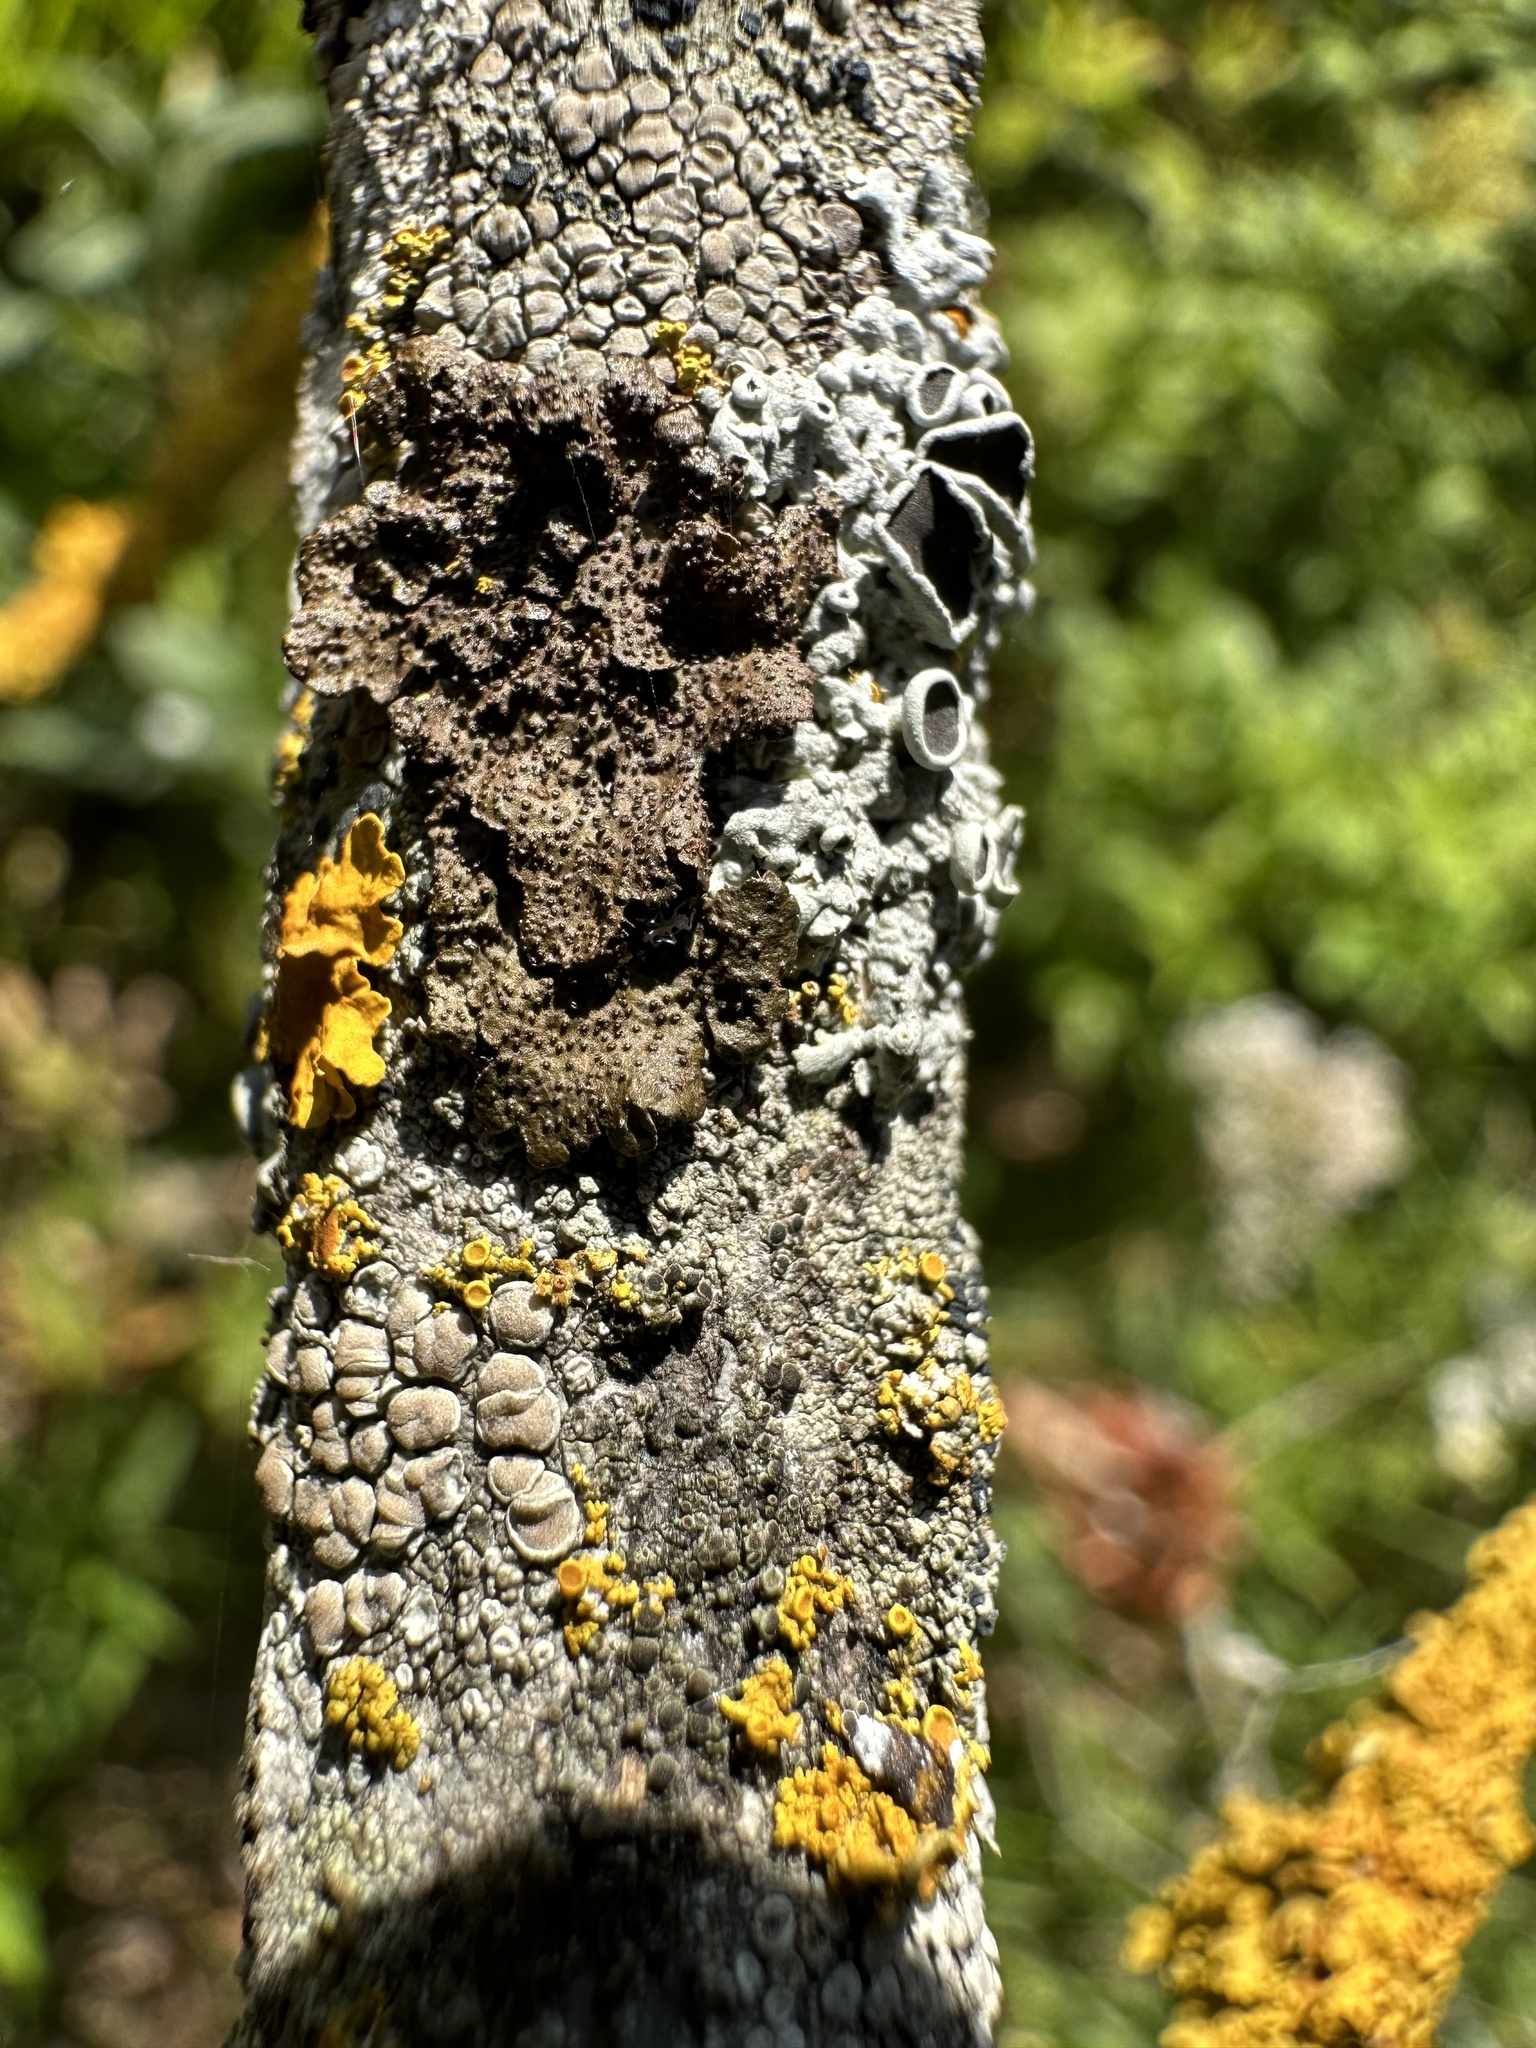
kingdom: Fungi
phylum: Ascomycota
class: Lecanoromycetes
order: Lecanorales
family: Parmeliaceae
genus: Melanohalea
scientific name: Melanohalea exasperata
